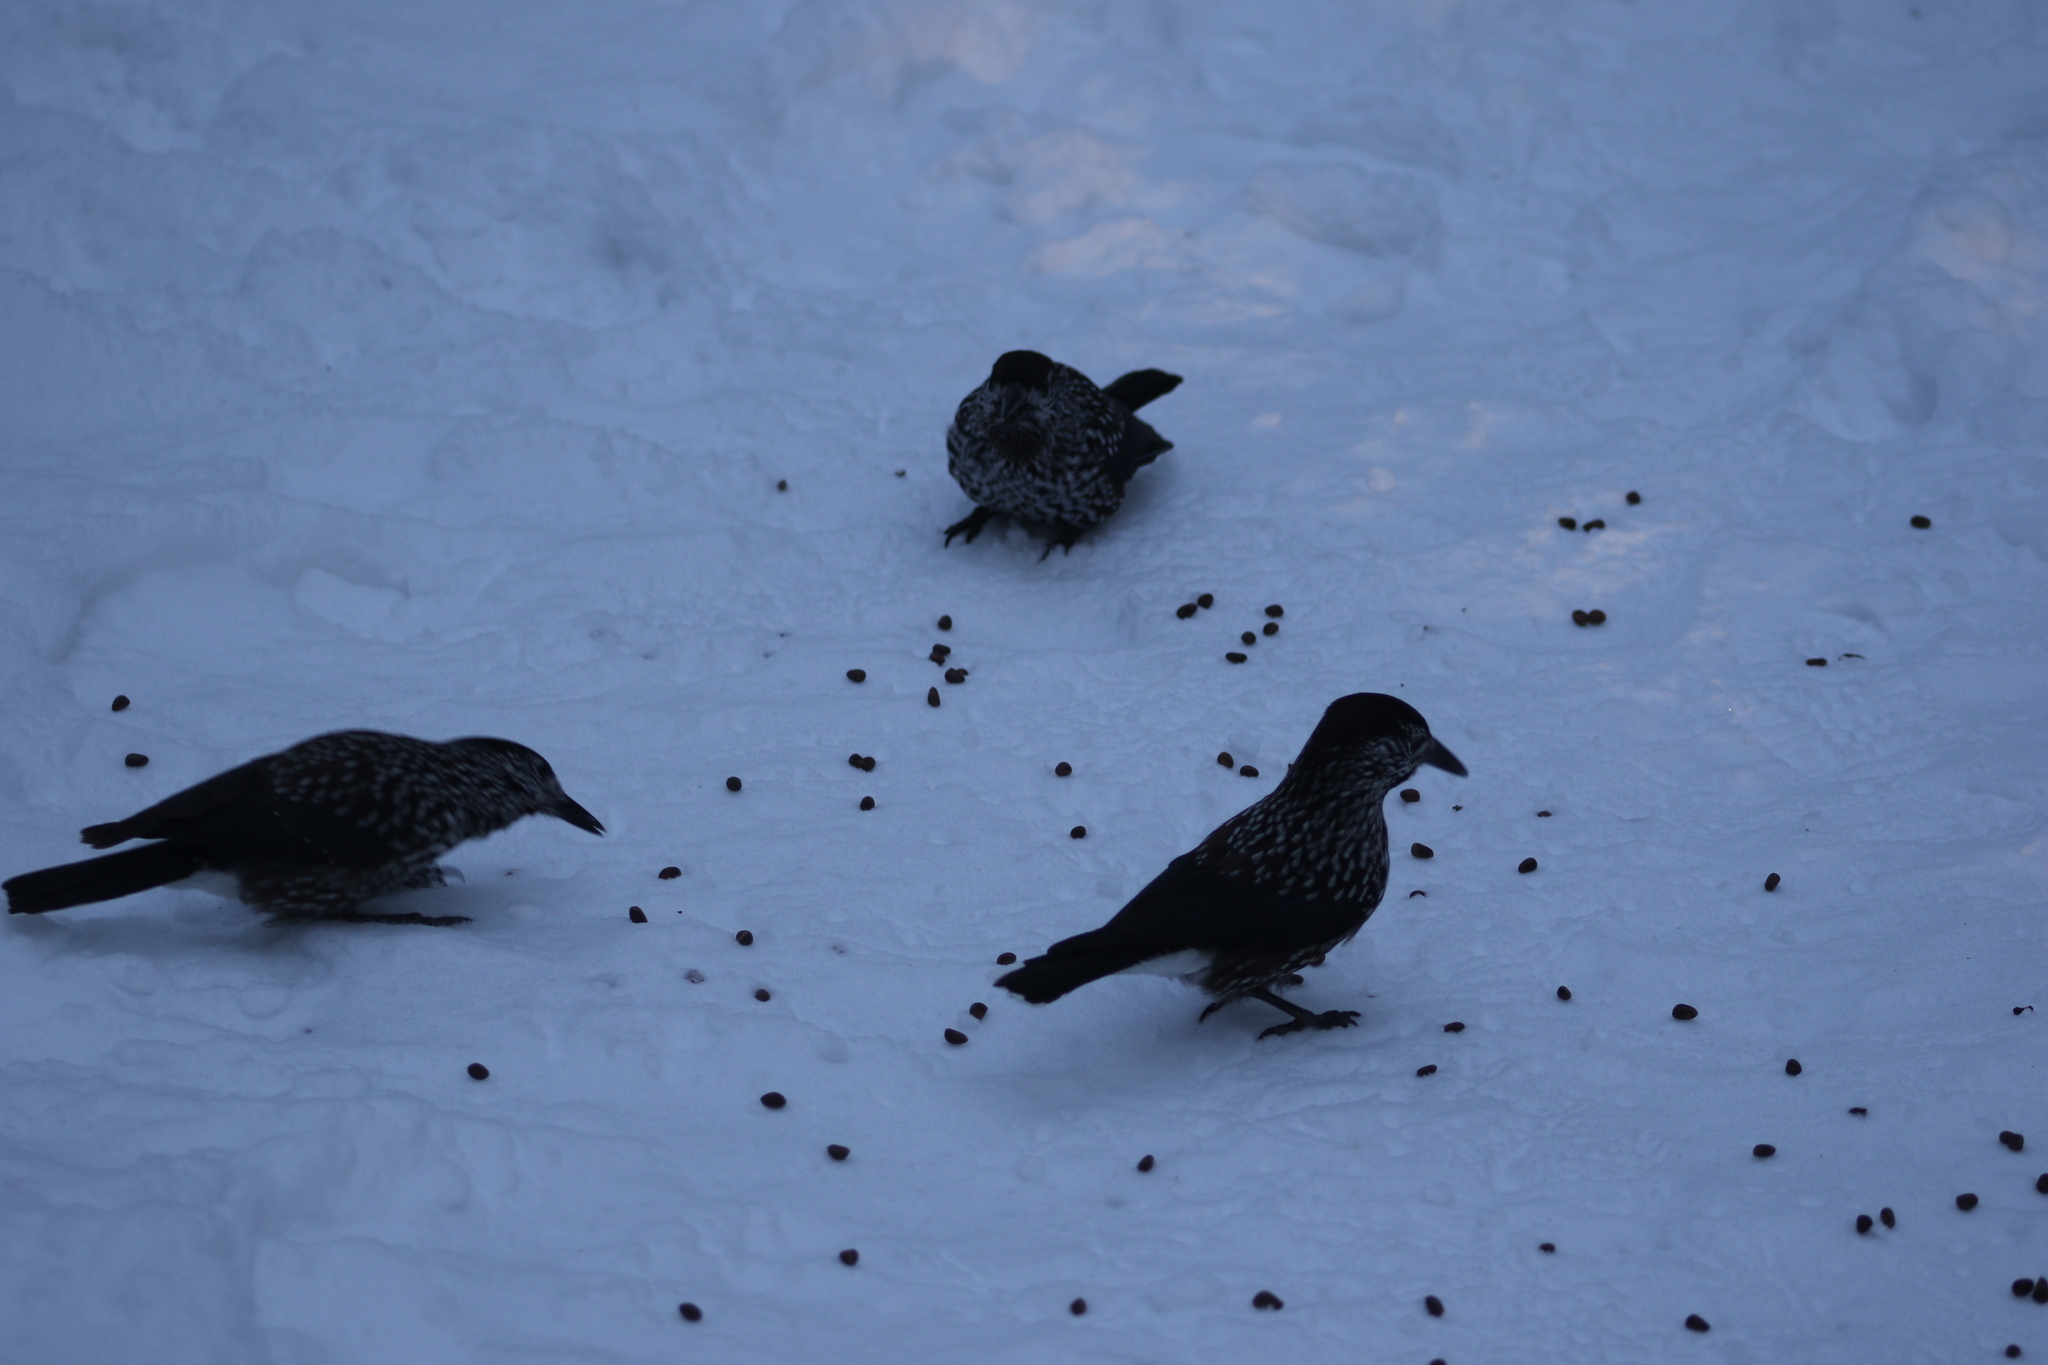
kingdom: Animalia
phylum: Chordata
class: Aves
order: Passeriformes
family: Corvidae
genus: Nucifraga
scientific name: Nucifraga caryocatactes
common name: Spotted nutcracker
